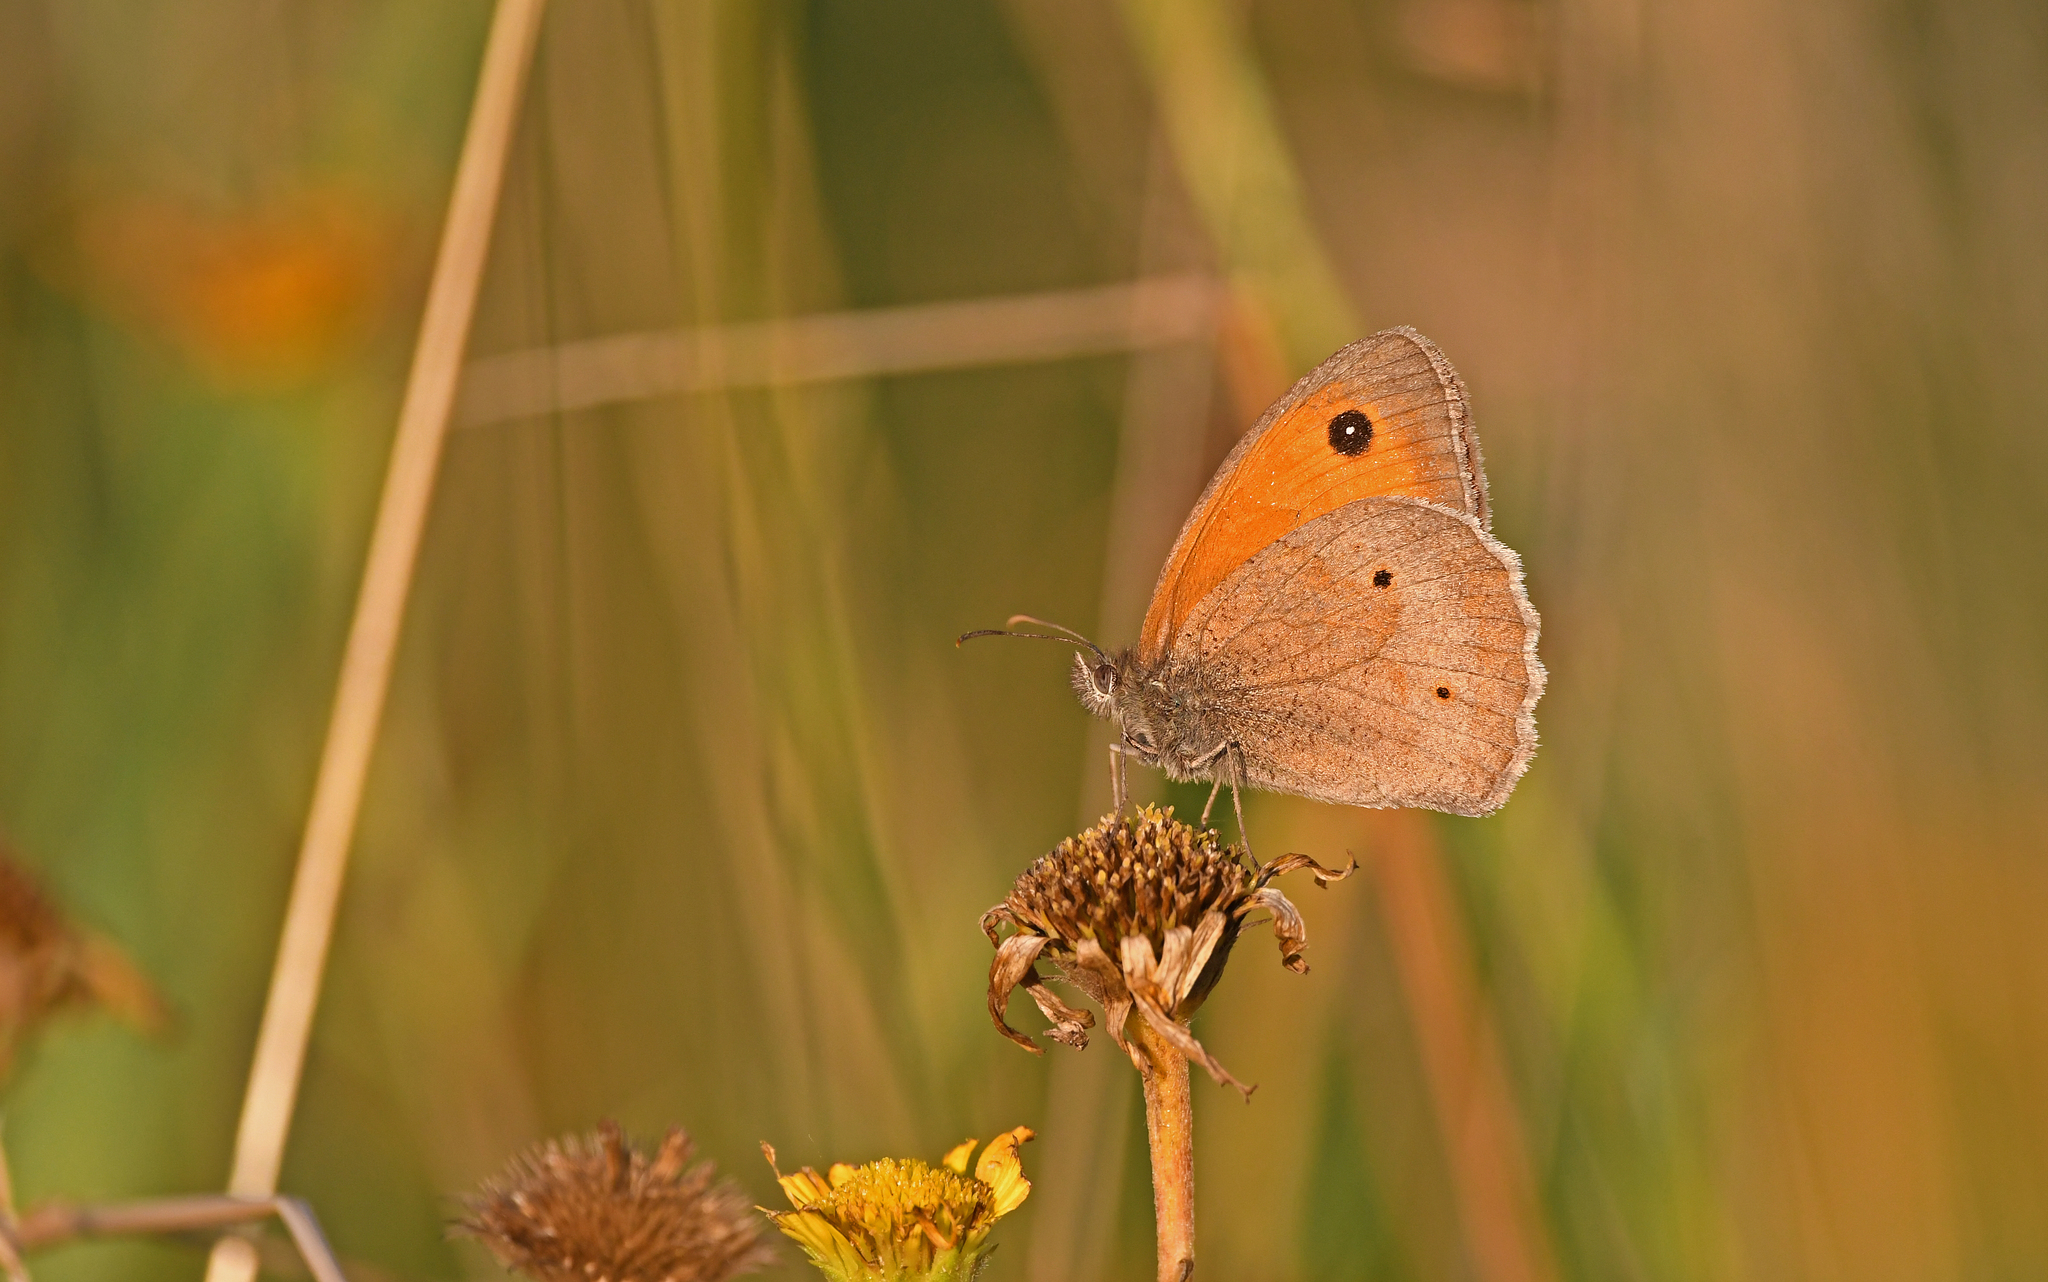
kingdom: Animalia
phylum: Arthropoda
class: Insecta
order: Lepidoptera
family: Nymphalidae
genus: Maniola
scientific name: Maniola jurtina
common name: Meadow brown
